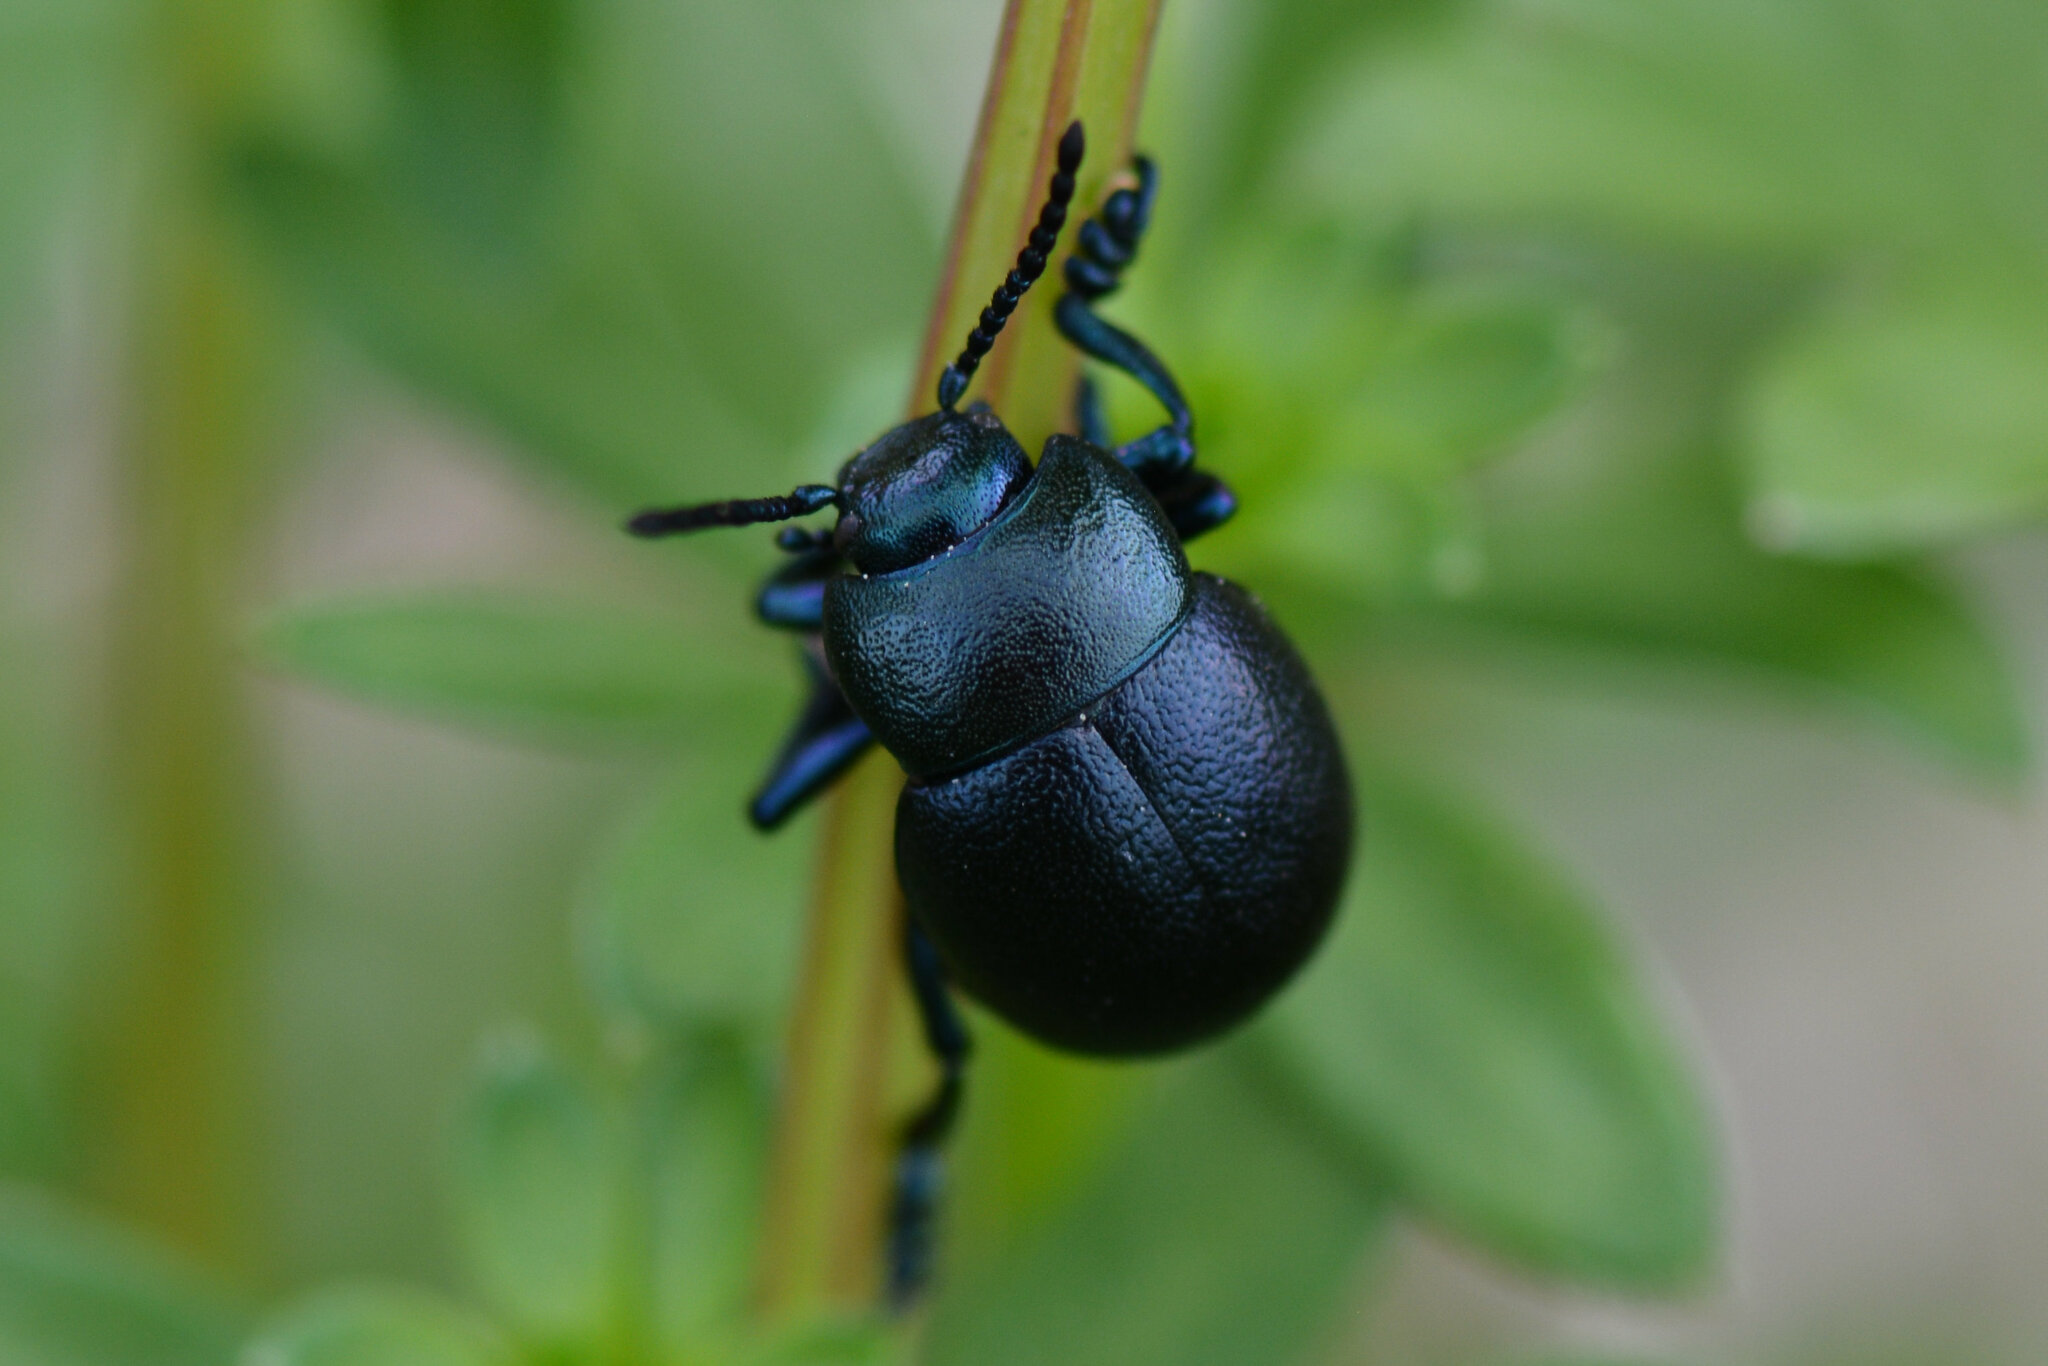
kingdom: Animalia
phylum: Arthropoda
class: Insecta
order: Coleoptera
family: Chrysomelidae
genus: Timarcha
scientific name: Timarcha goettingensis
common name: Small bloody-nosed beetle
